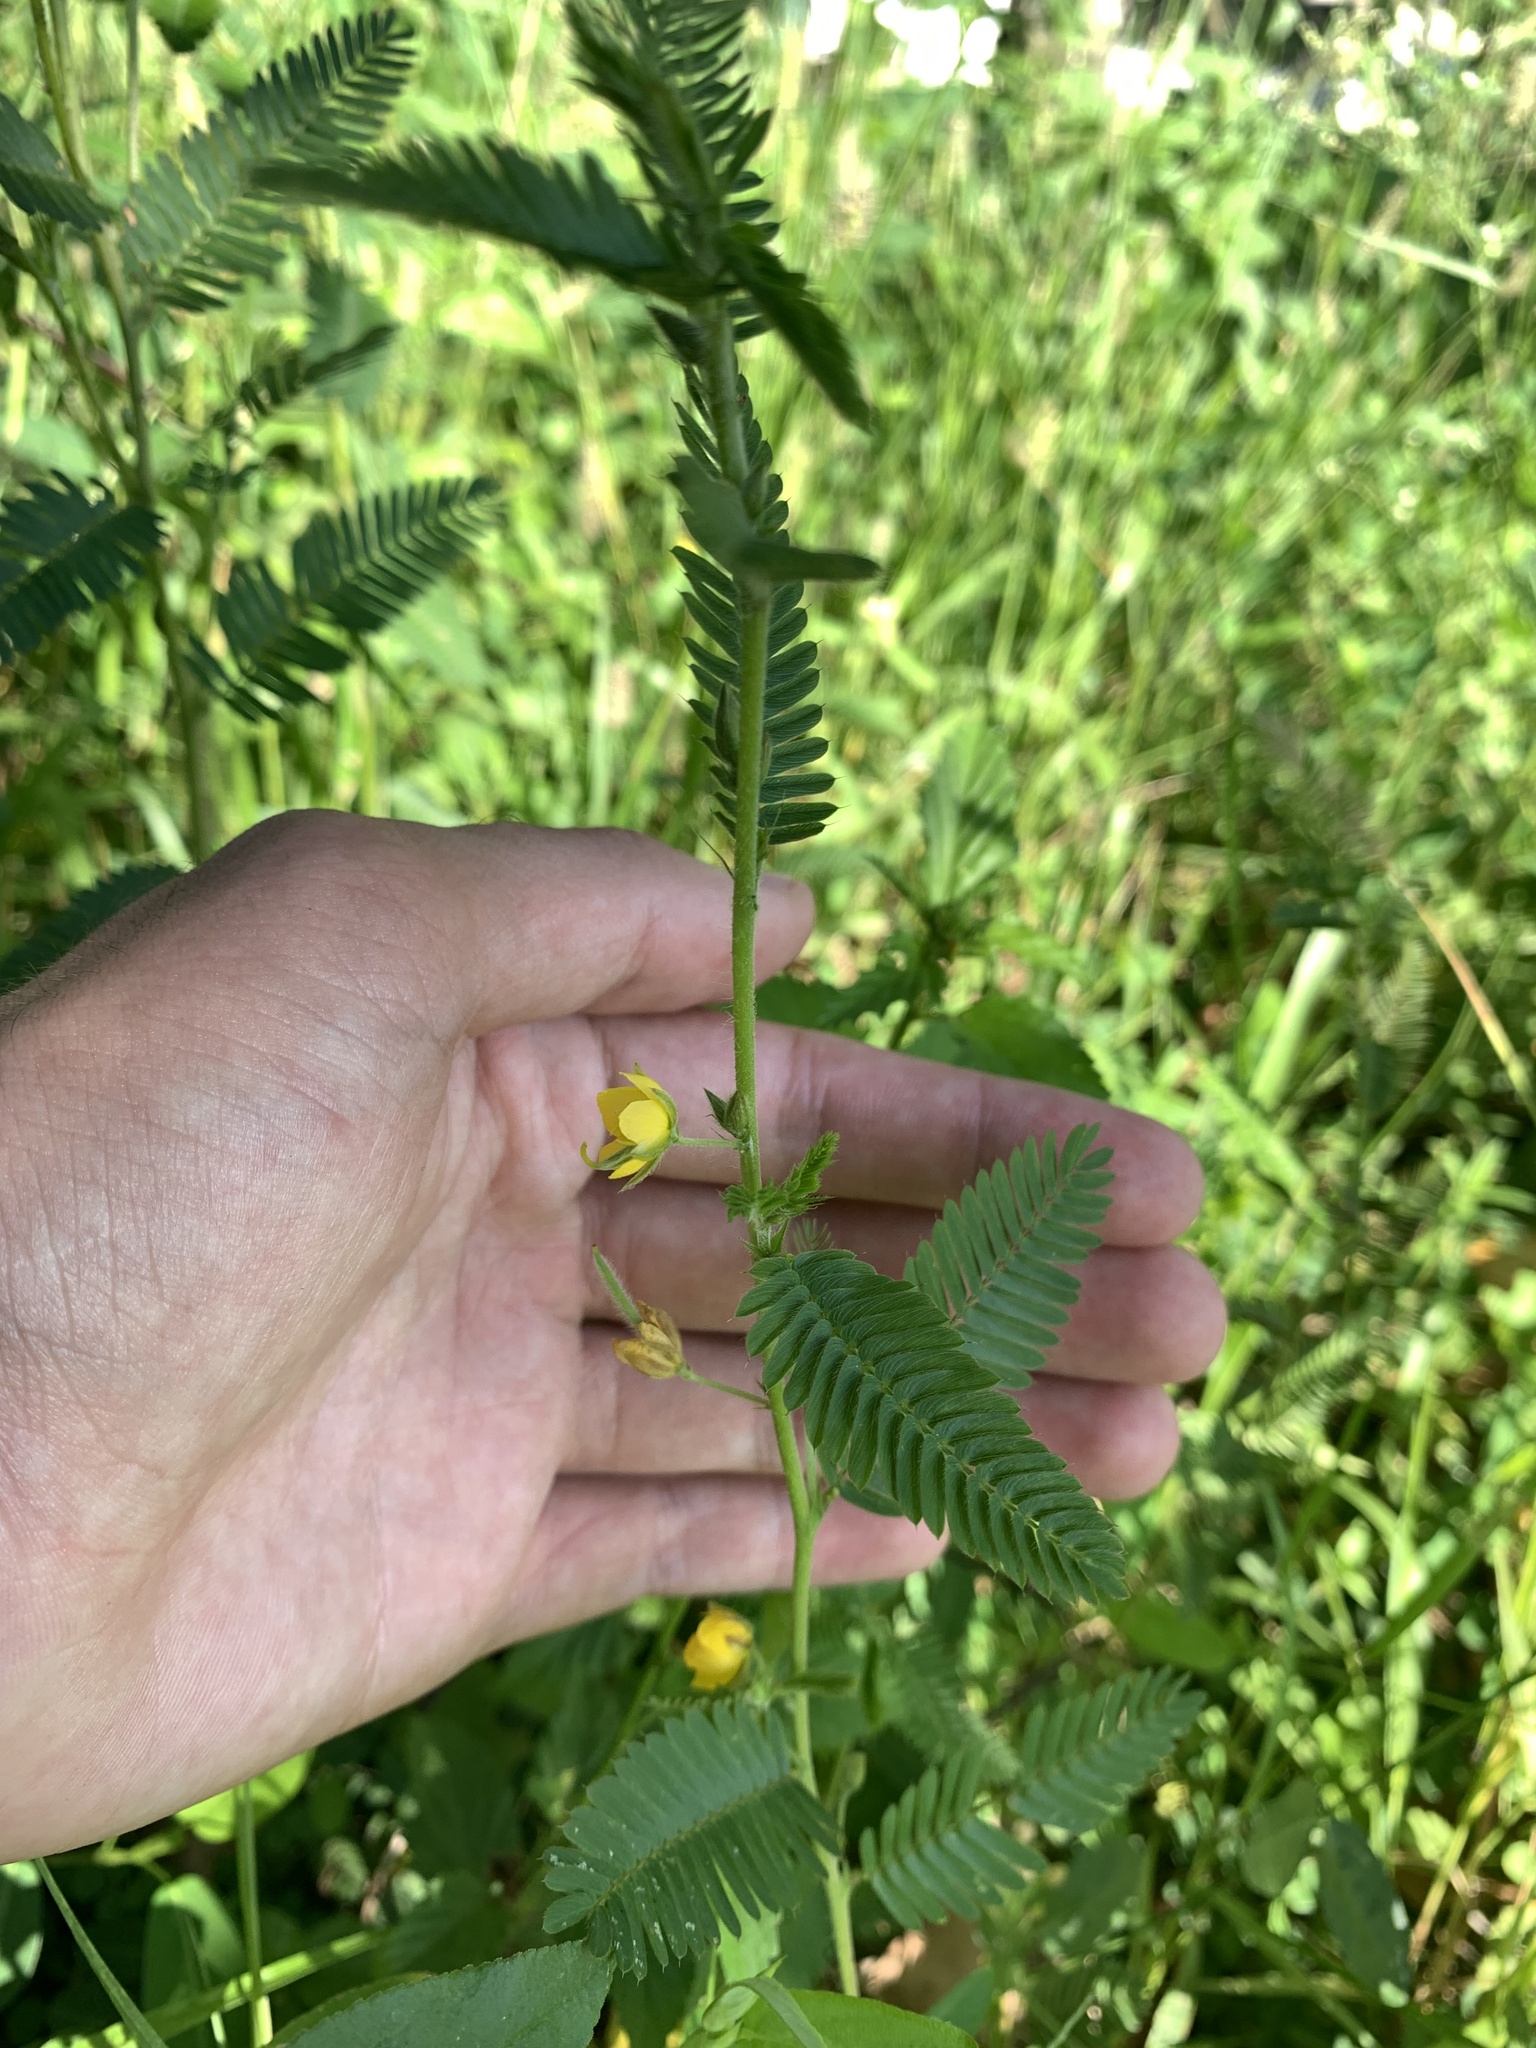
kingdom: Plantae
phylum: Tracheophyta
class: Magnoliopsida
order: Fabales
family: Fabaceae
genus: Chamaecrista
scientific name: Chamaecrista nictitans
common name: Sensitive cassia
